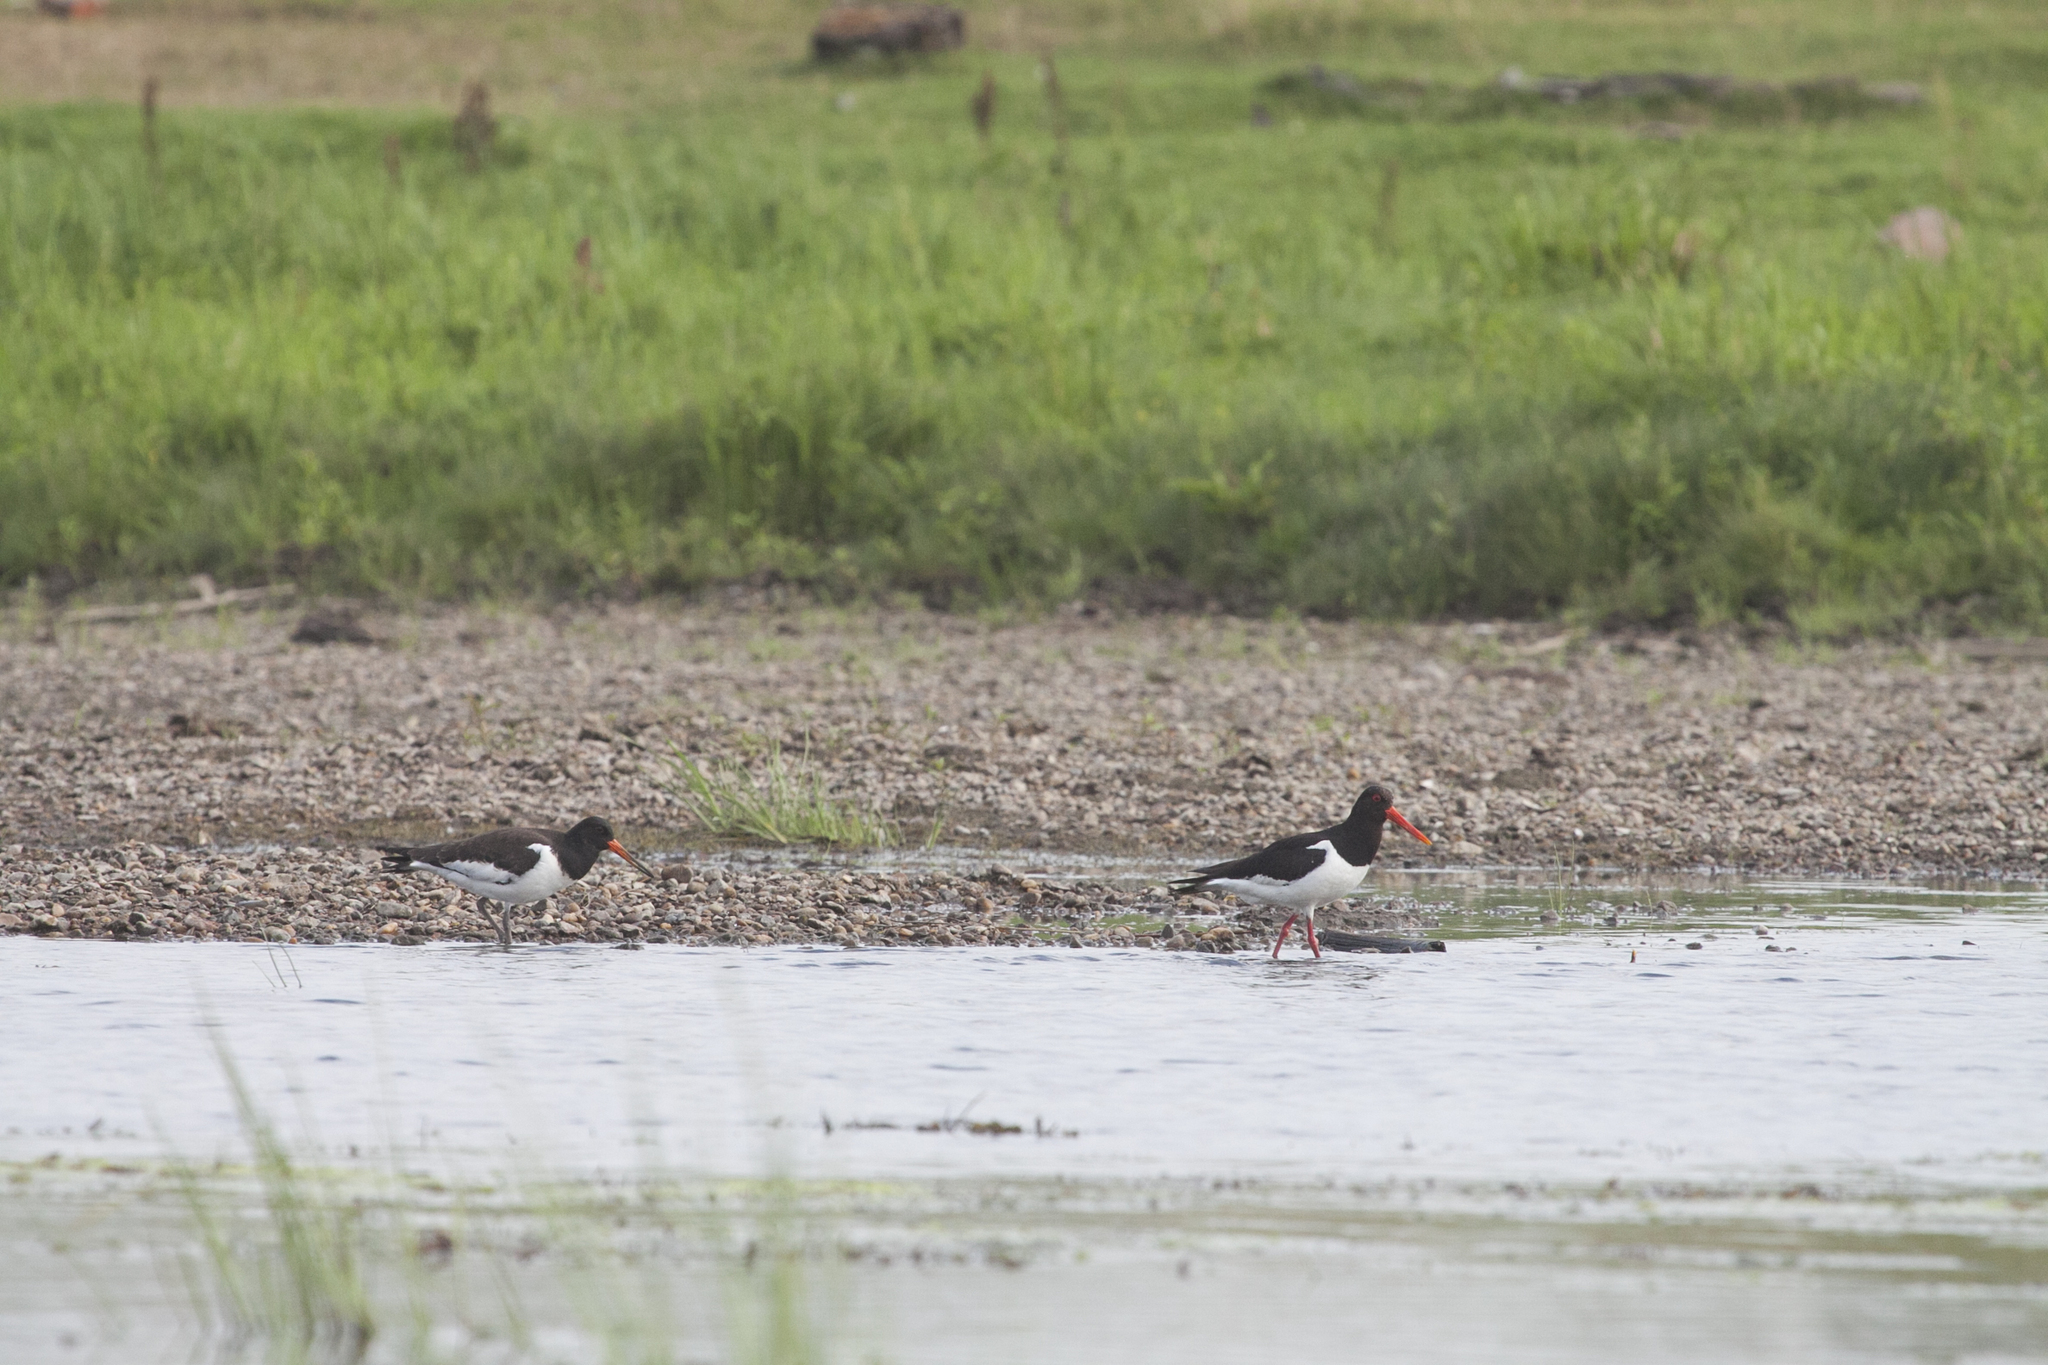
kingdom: Animalia
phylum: Chordata
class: Aves
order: Charadriiformes
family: Haematopodidae
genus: Haematopus
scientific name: Haematopus ostralegus
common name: Eurasian oystercatcher
